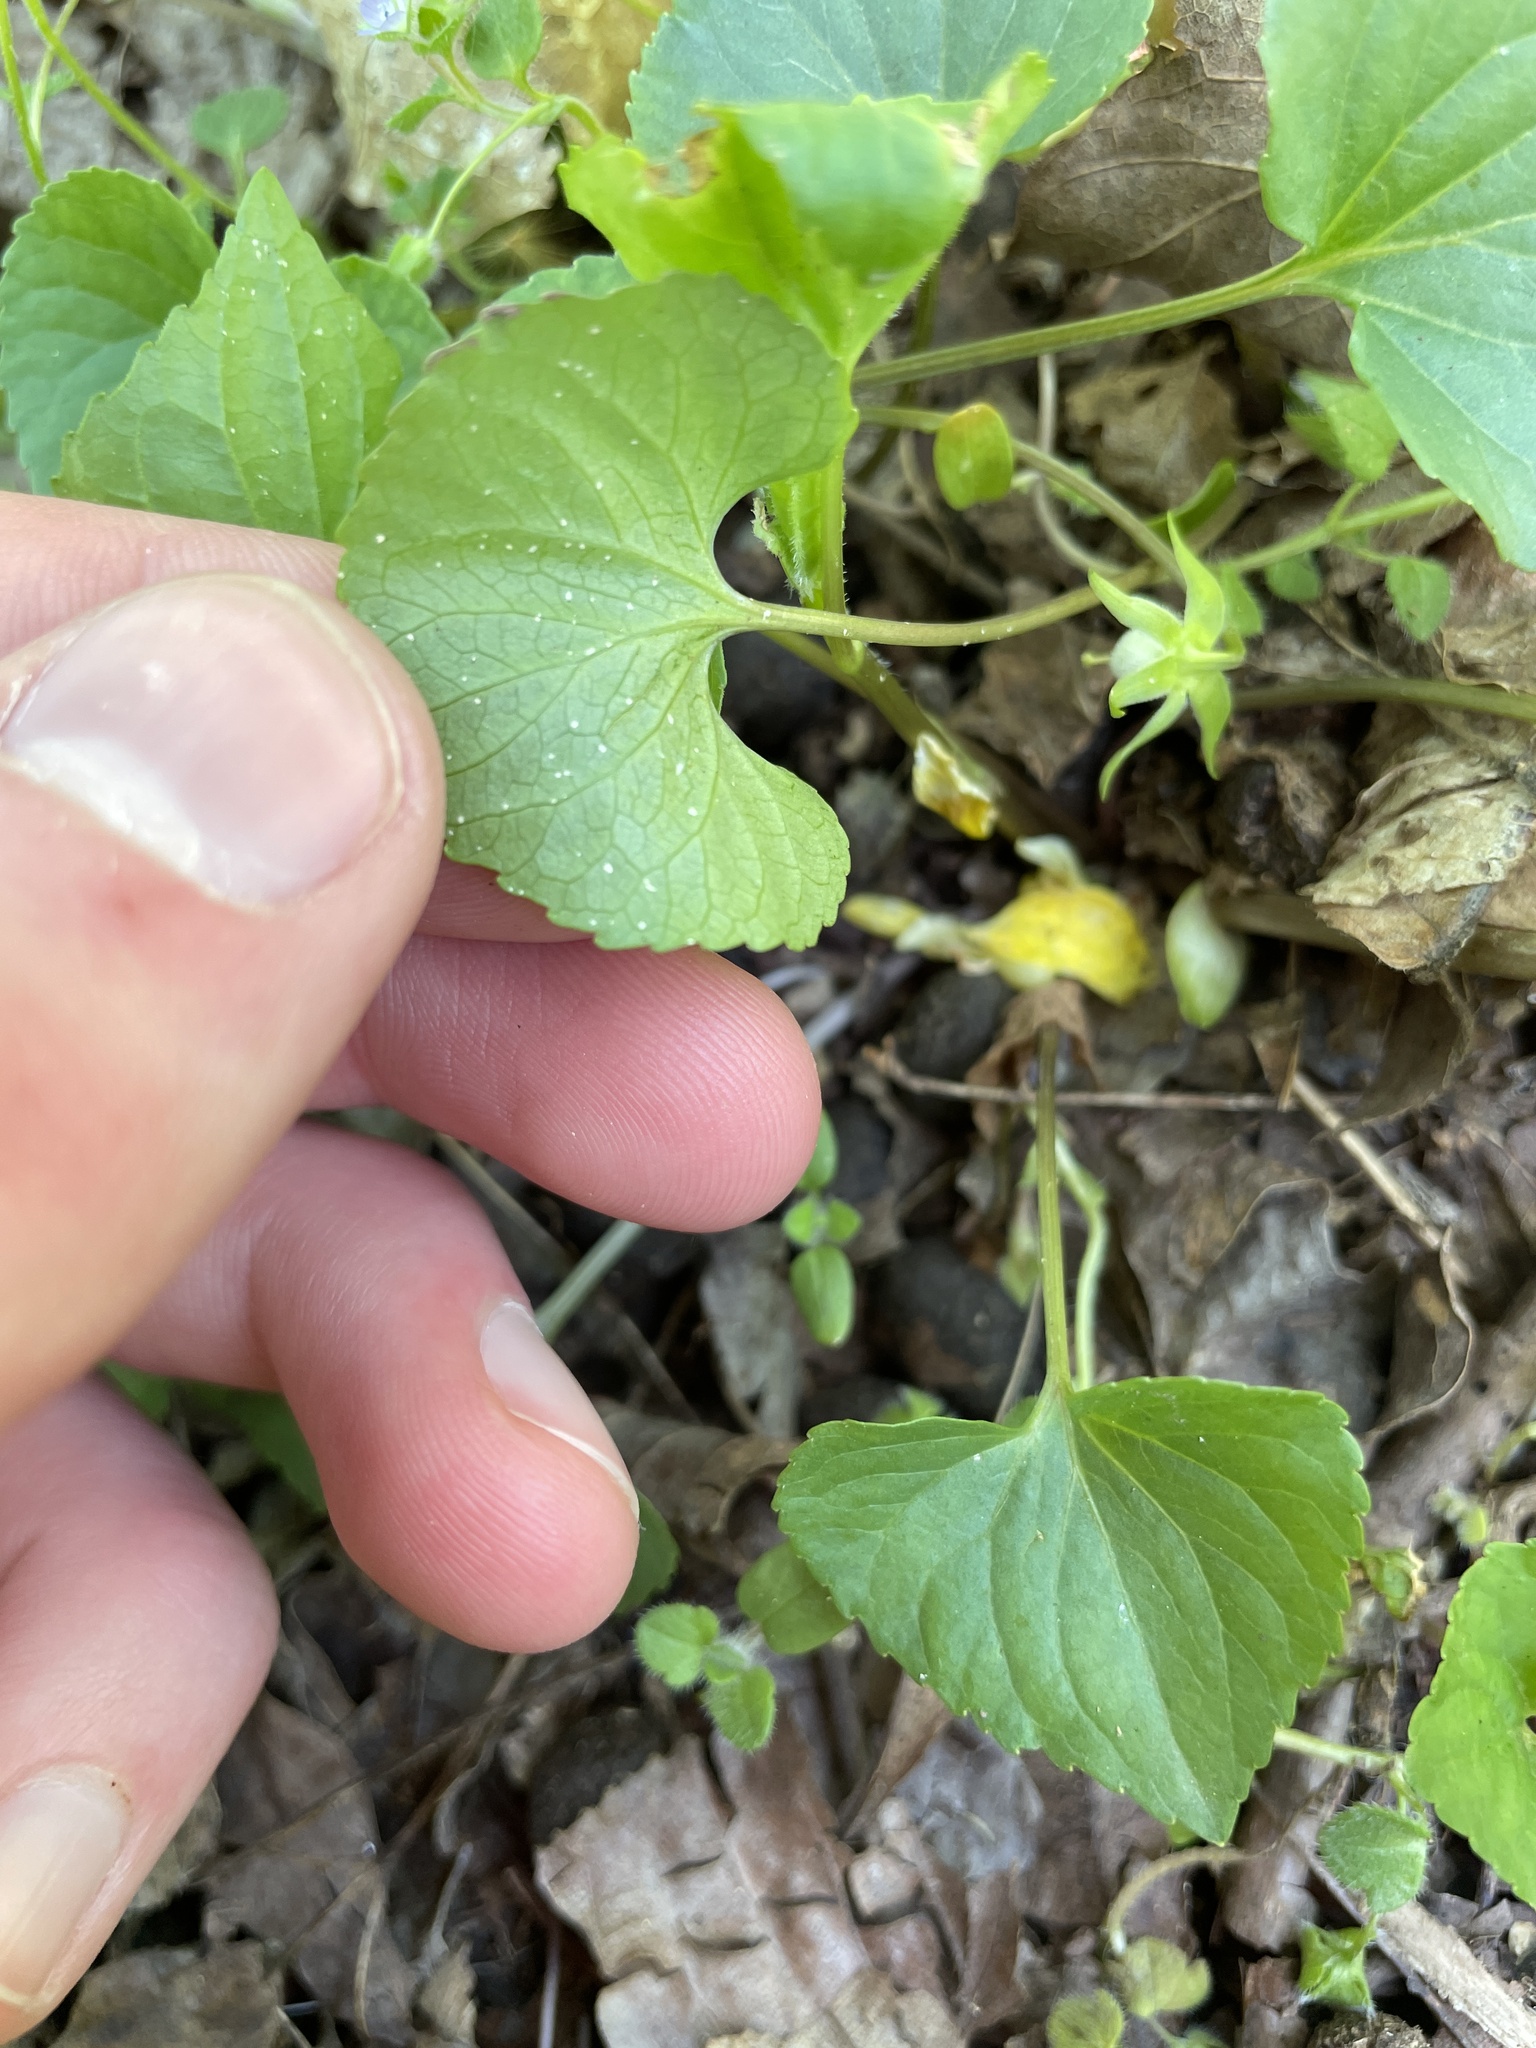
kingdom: Plantae
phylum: Tracheophyta
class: Magnoliopsida
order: Malpighiales
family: Violaceae
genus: Viola
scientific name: Viola eriocarpa
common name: Smooth yellow violet
